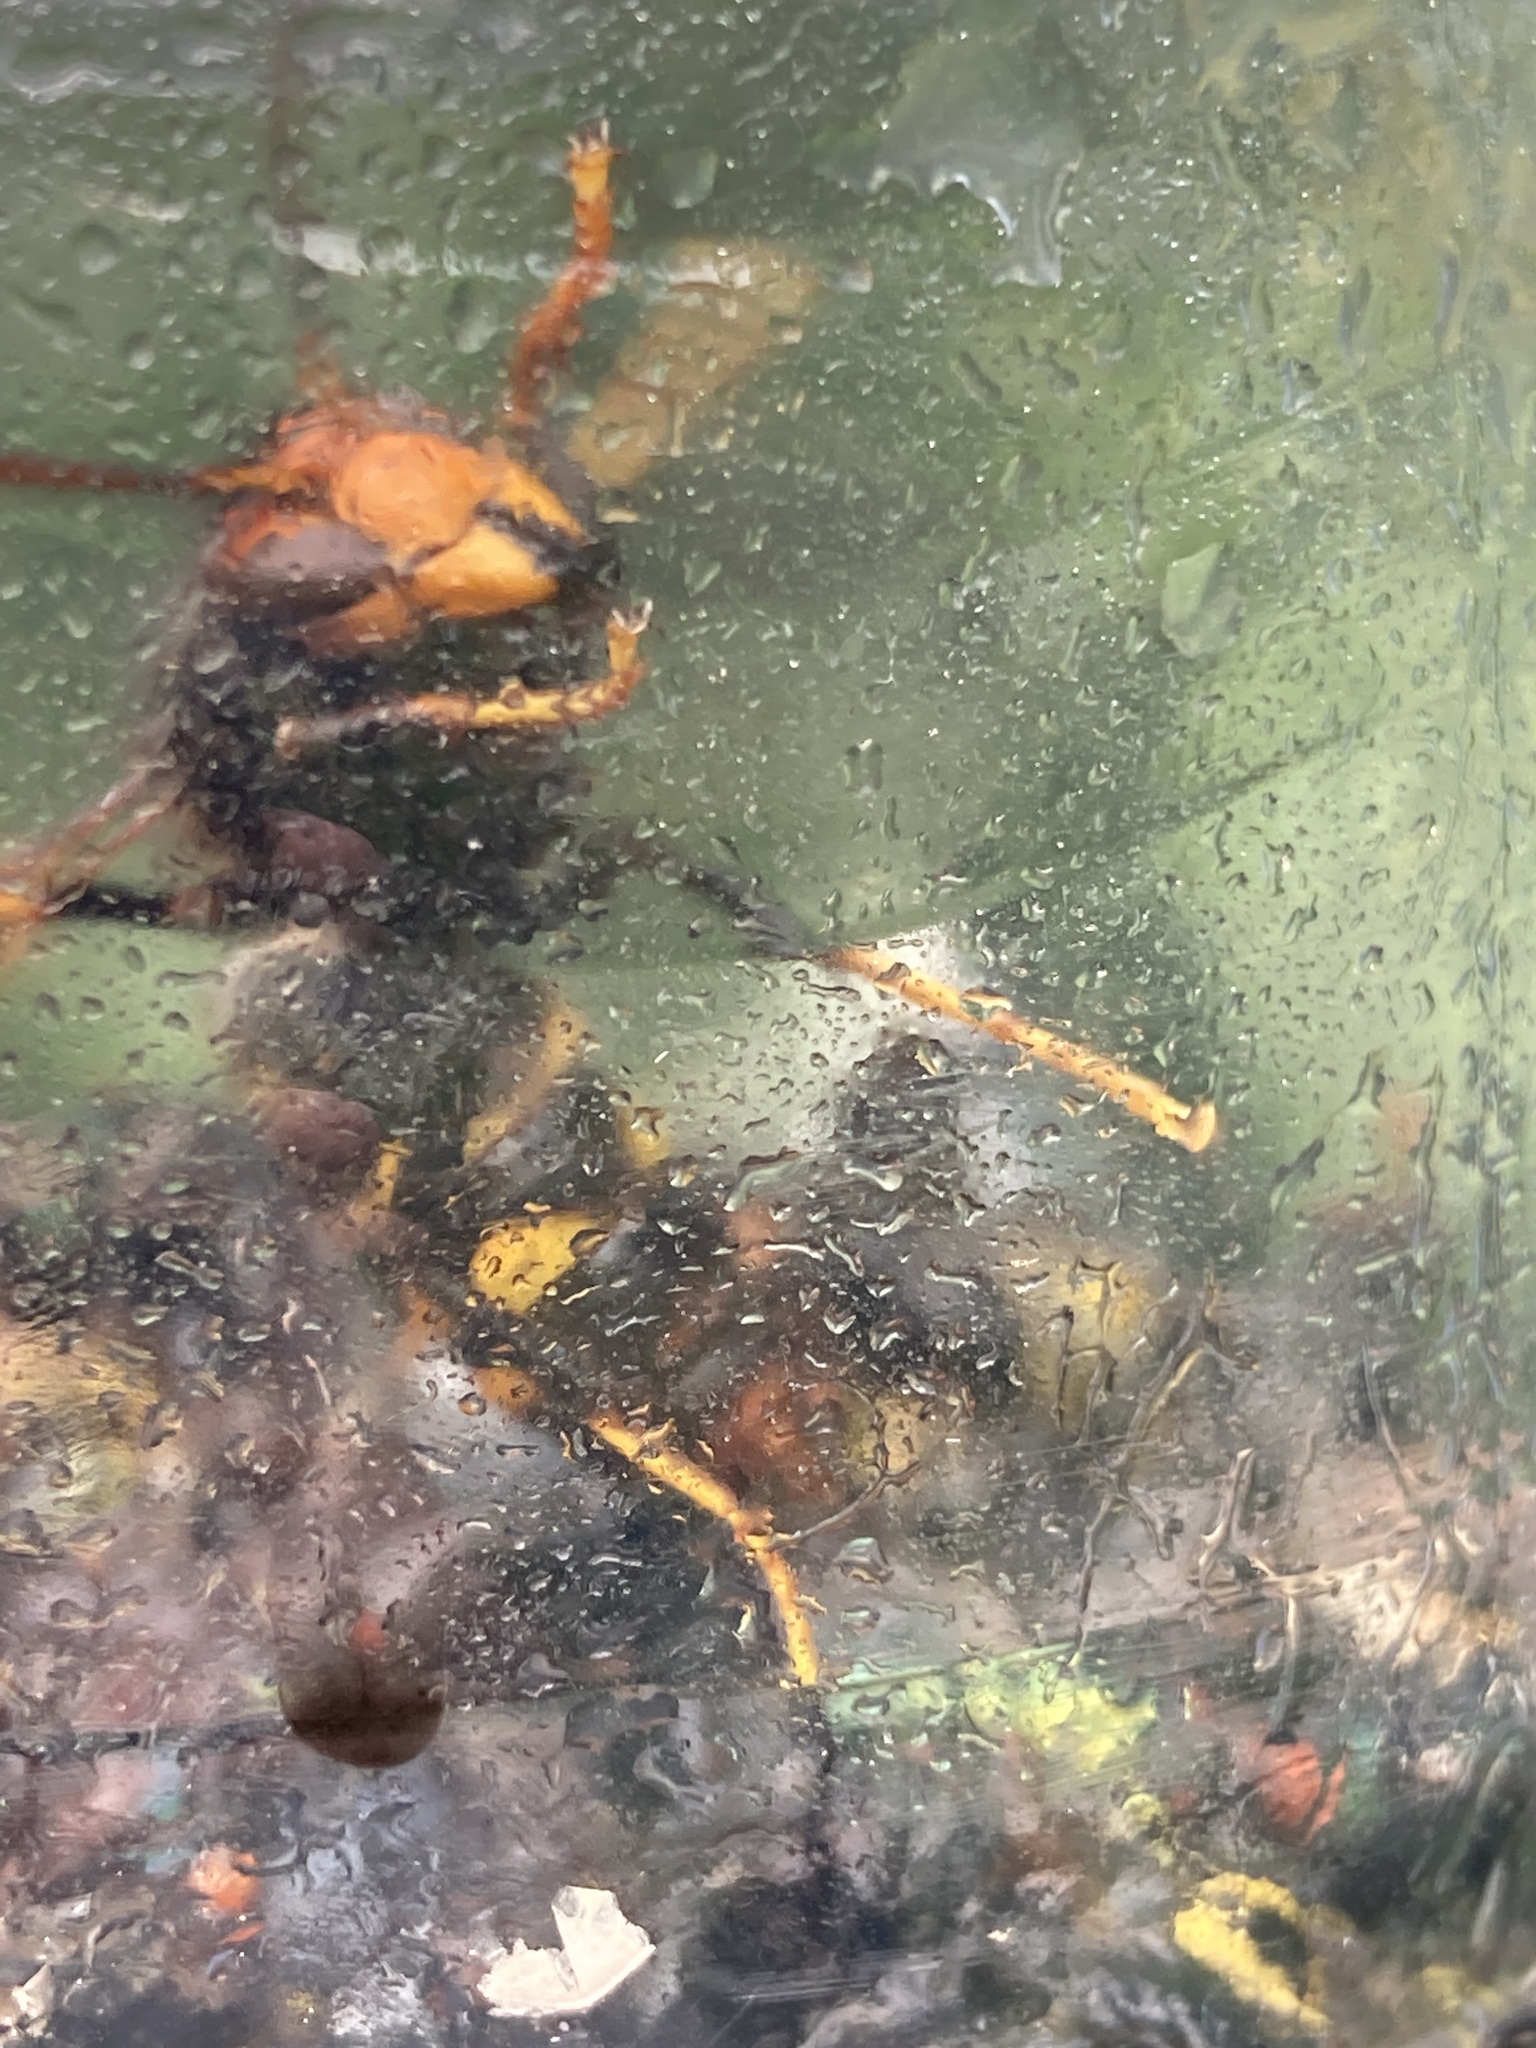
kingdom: Animalia
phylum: Arthropoda
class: Insecta
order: Hymenoptera
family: Vespidae
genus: Vespa
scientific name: Vespa velutina
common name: Asian hornet
